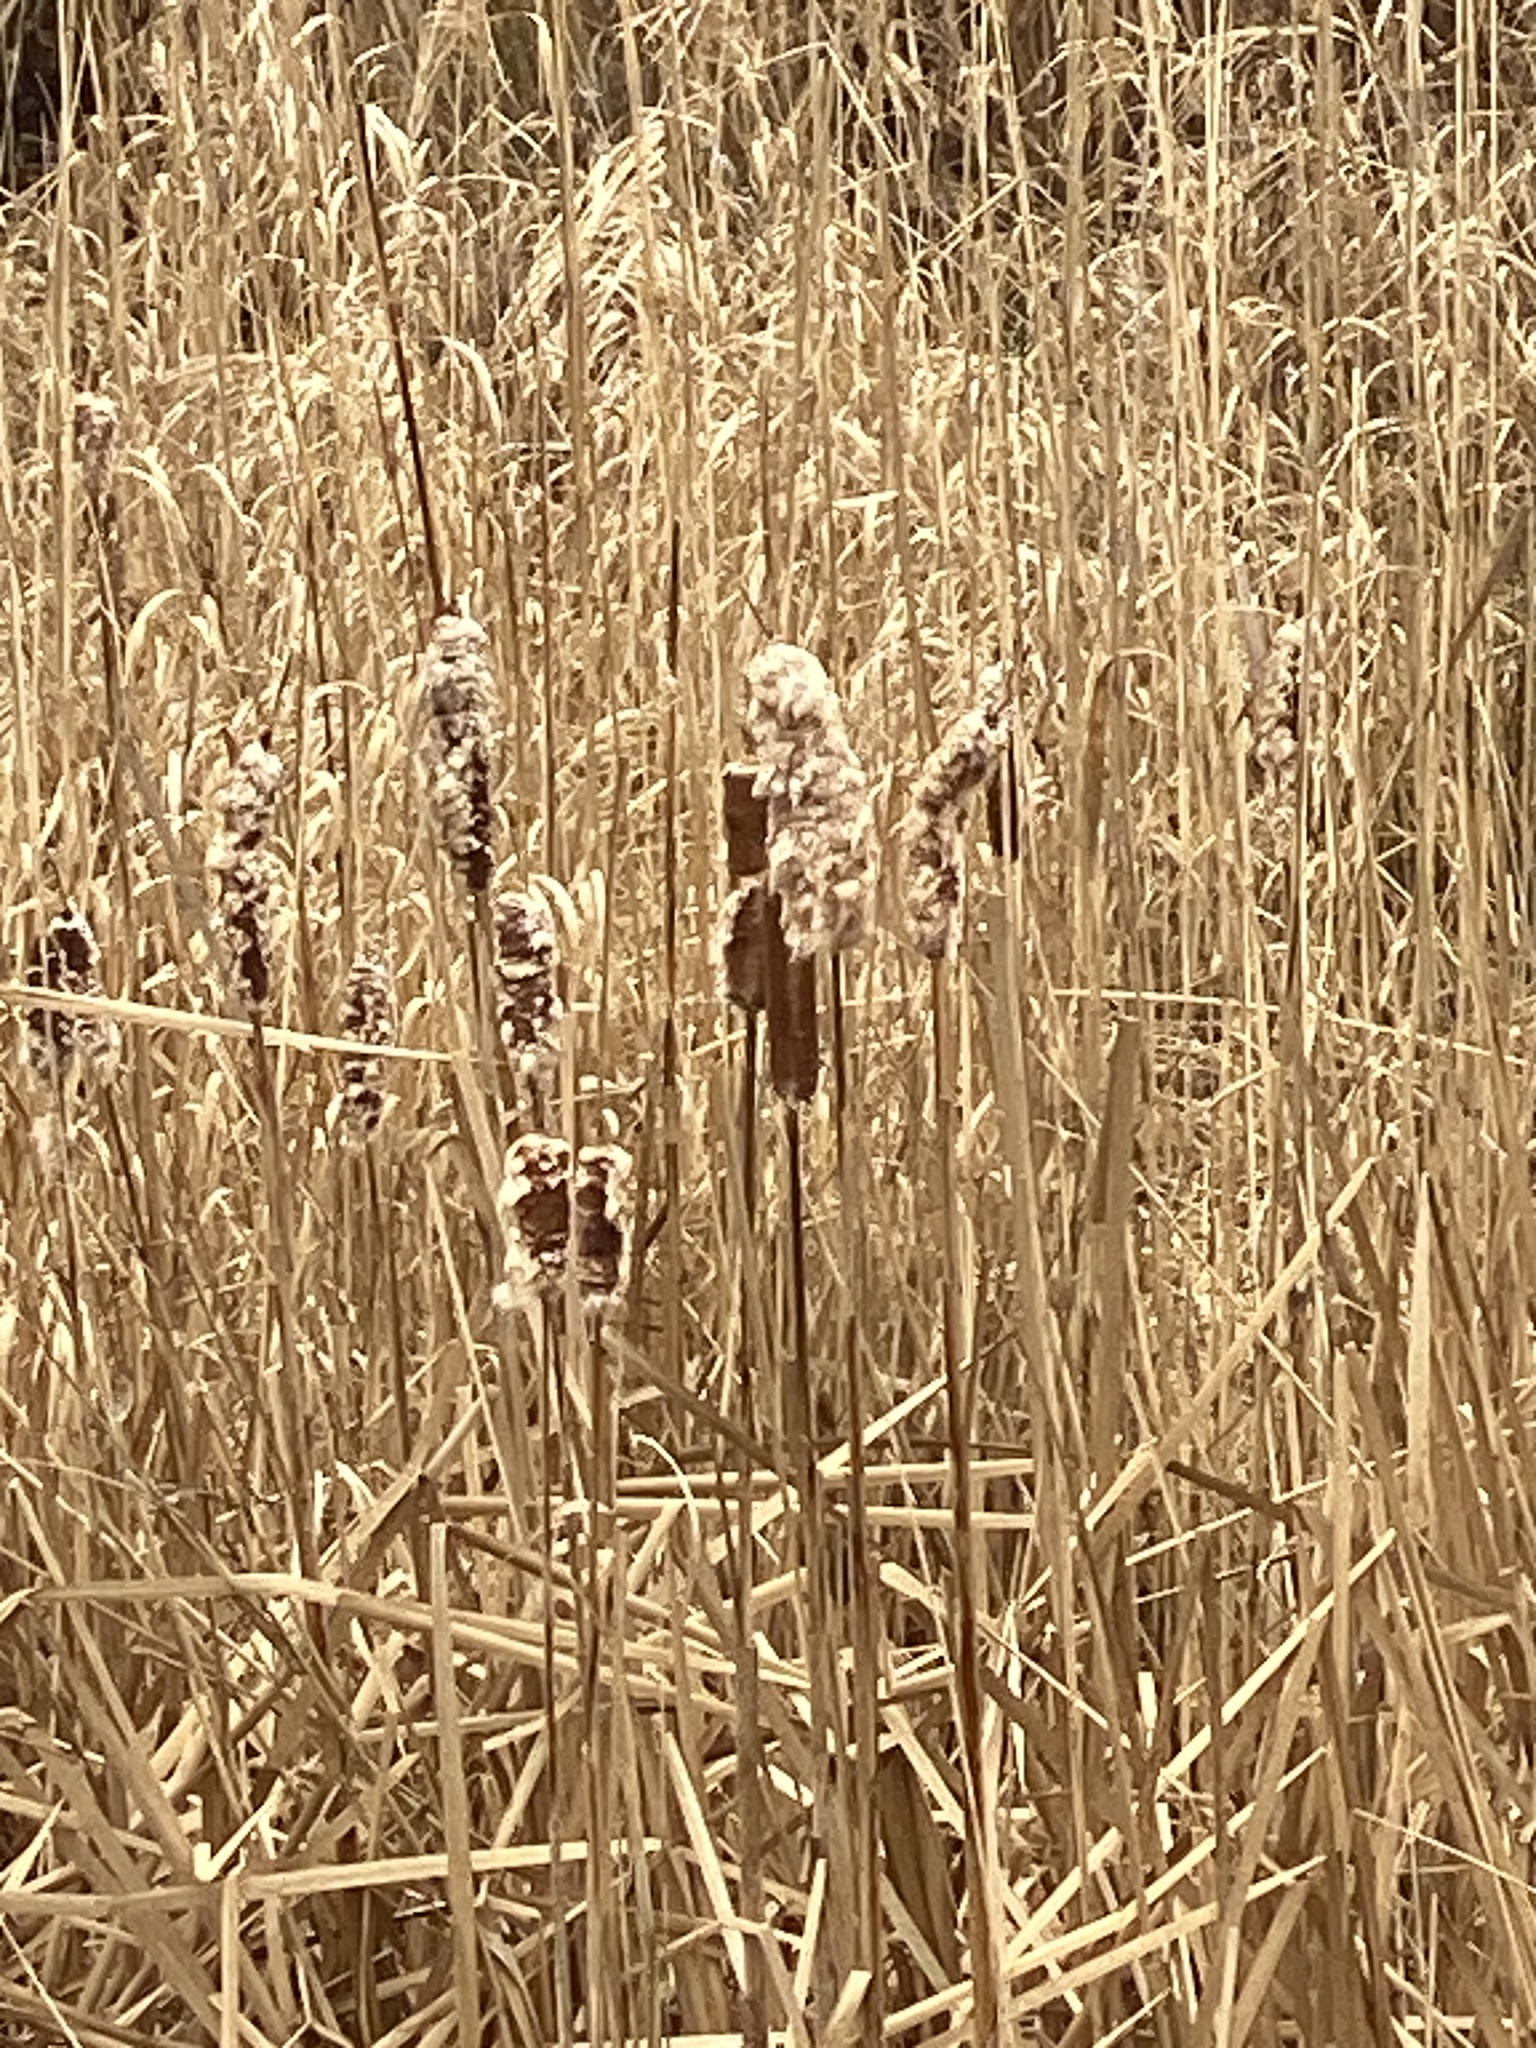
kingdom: Plantae
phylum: Tracheophyta
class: Liliopsida
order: Poales
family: Typhaceae
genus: Typha
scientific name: Typha
